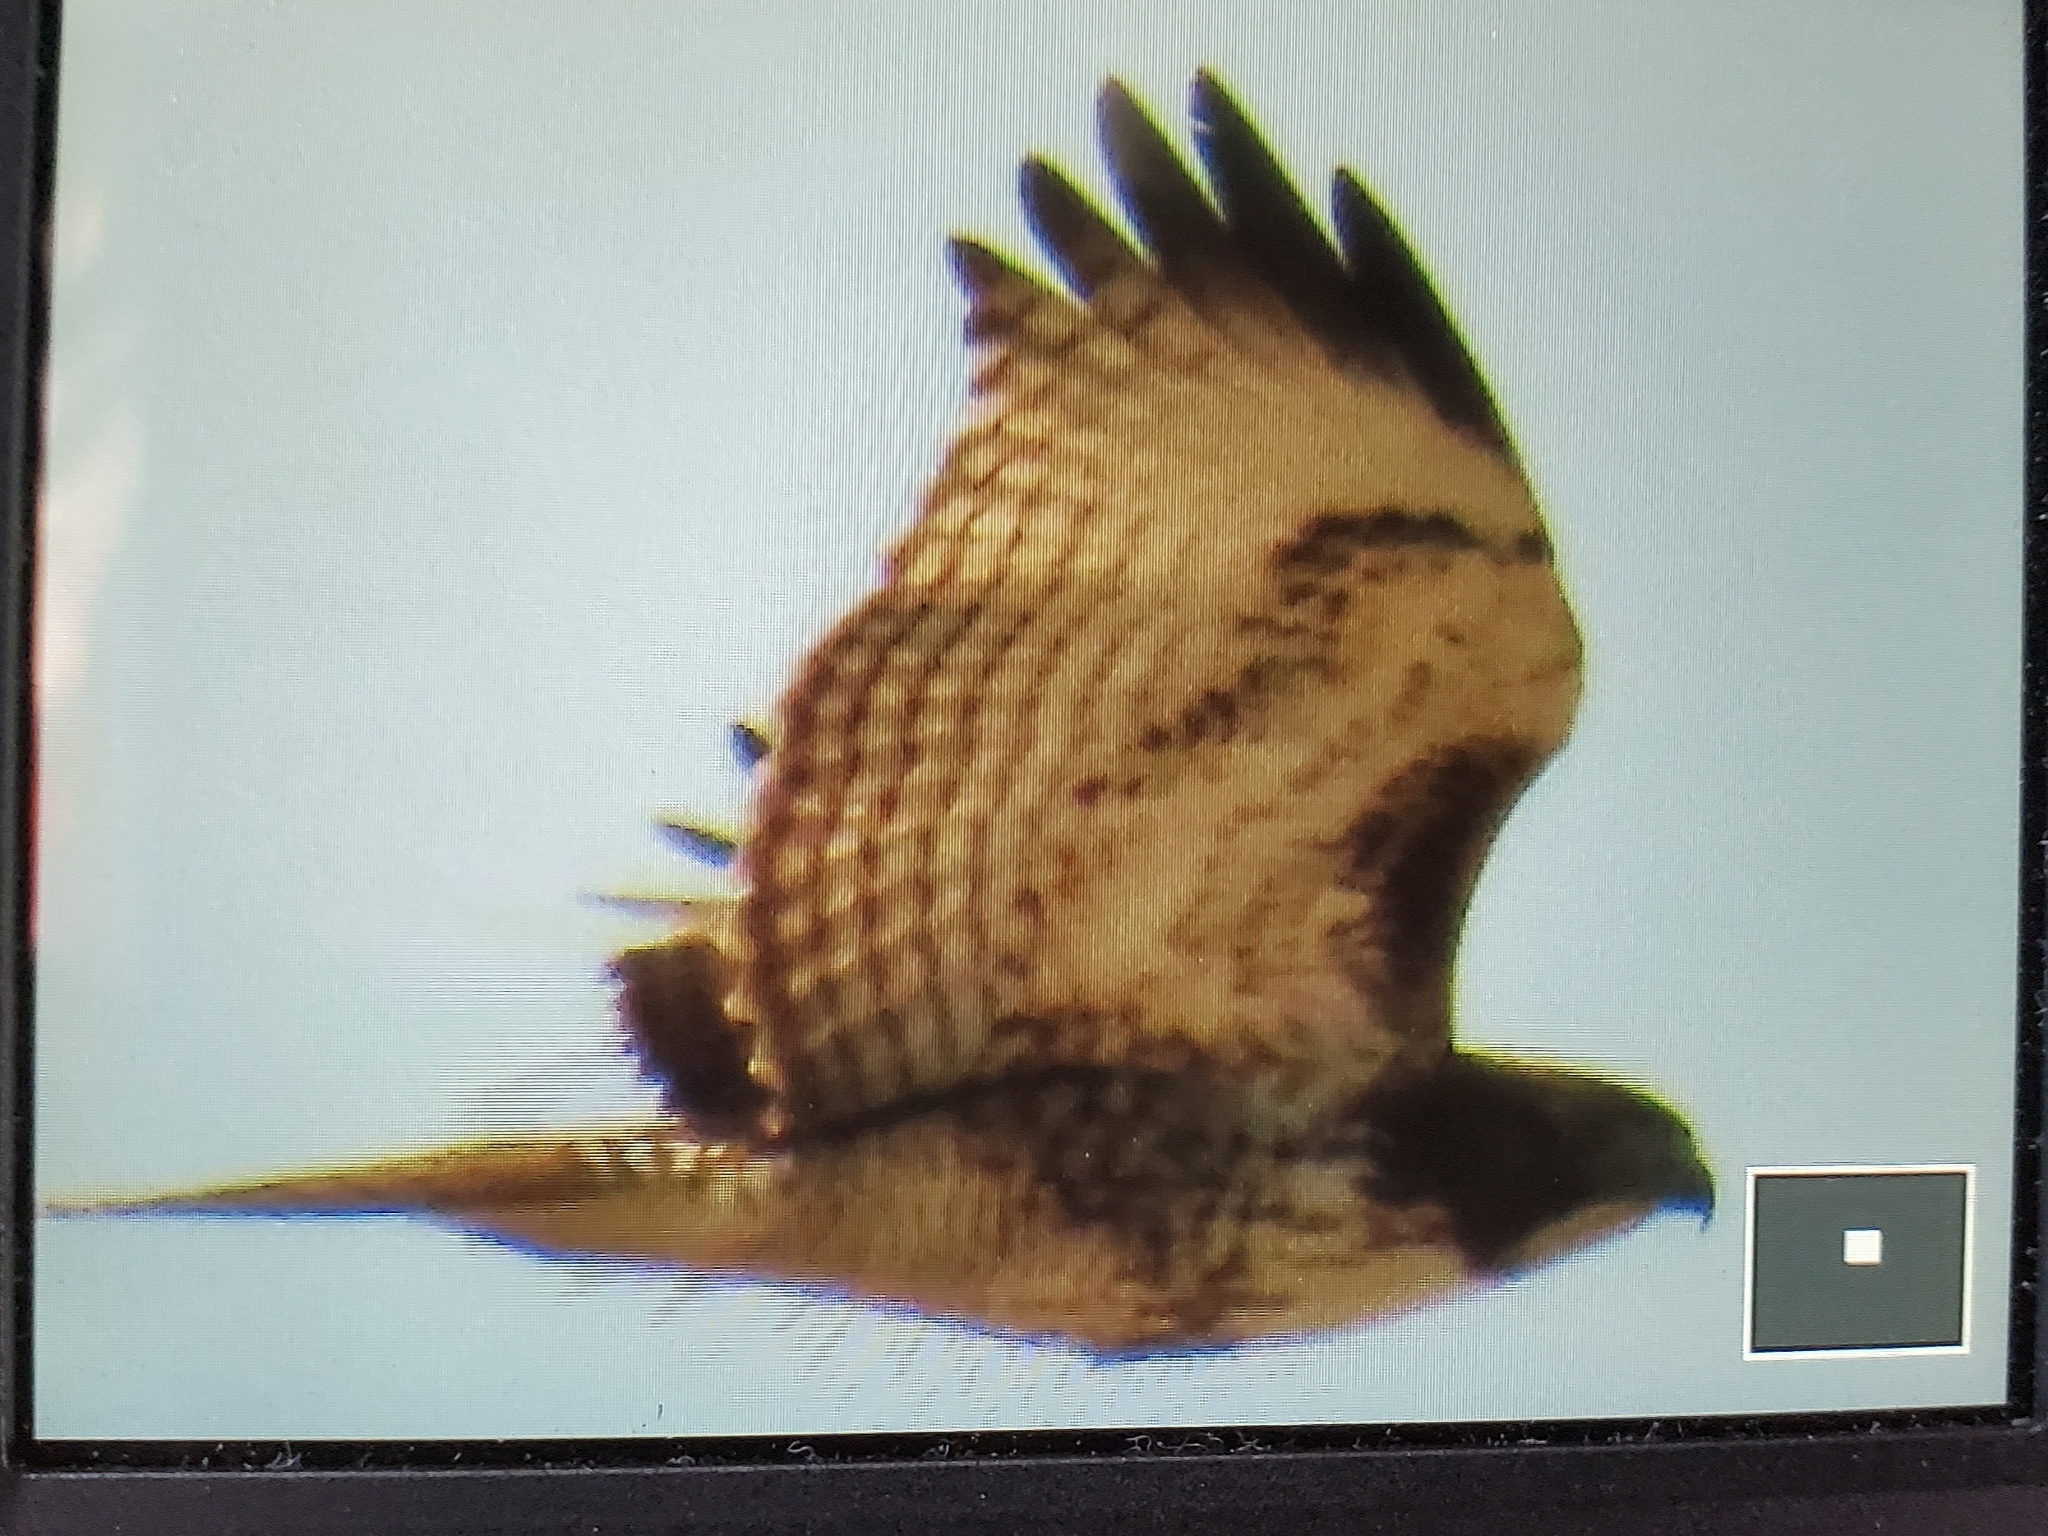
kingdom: Animalia
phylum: Chordata
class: Aves
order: Accipitriformes
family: Accipitridae
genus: Buteo
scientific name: Buteo jamaicensis
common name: Red-tailed hawk
